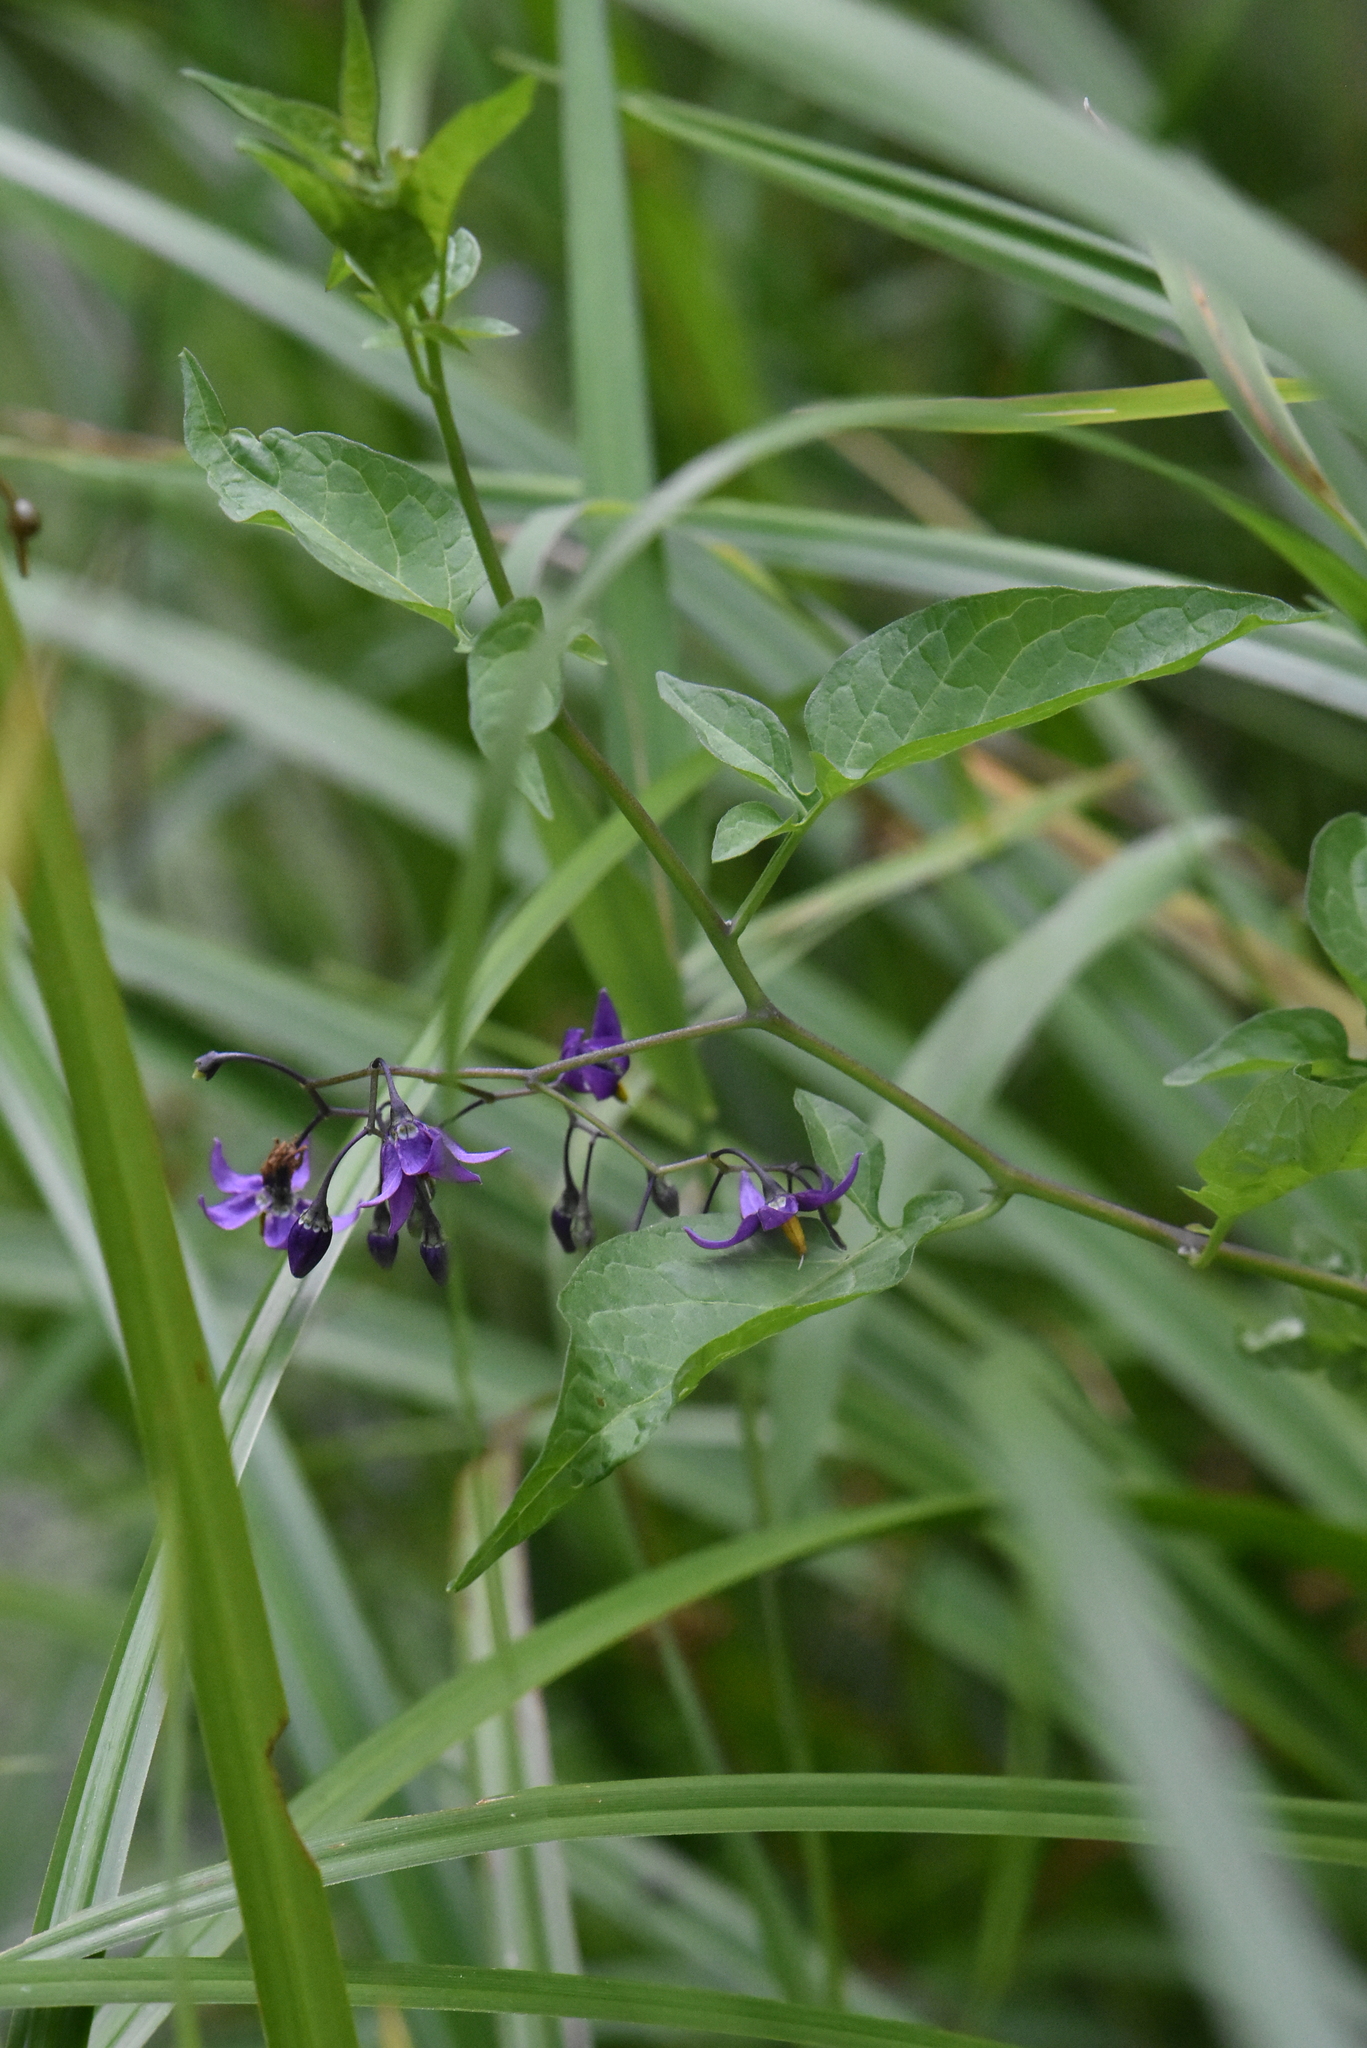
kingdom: Plantae
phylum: Tracheophyta
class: Magnoliopsida
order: Solanales
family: Solanaceae
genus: Solanum
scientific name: Solanum dulcamara
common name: Climbing nightshade
